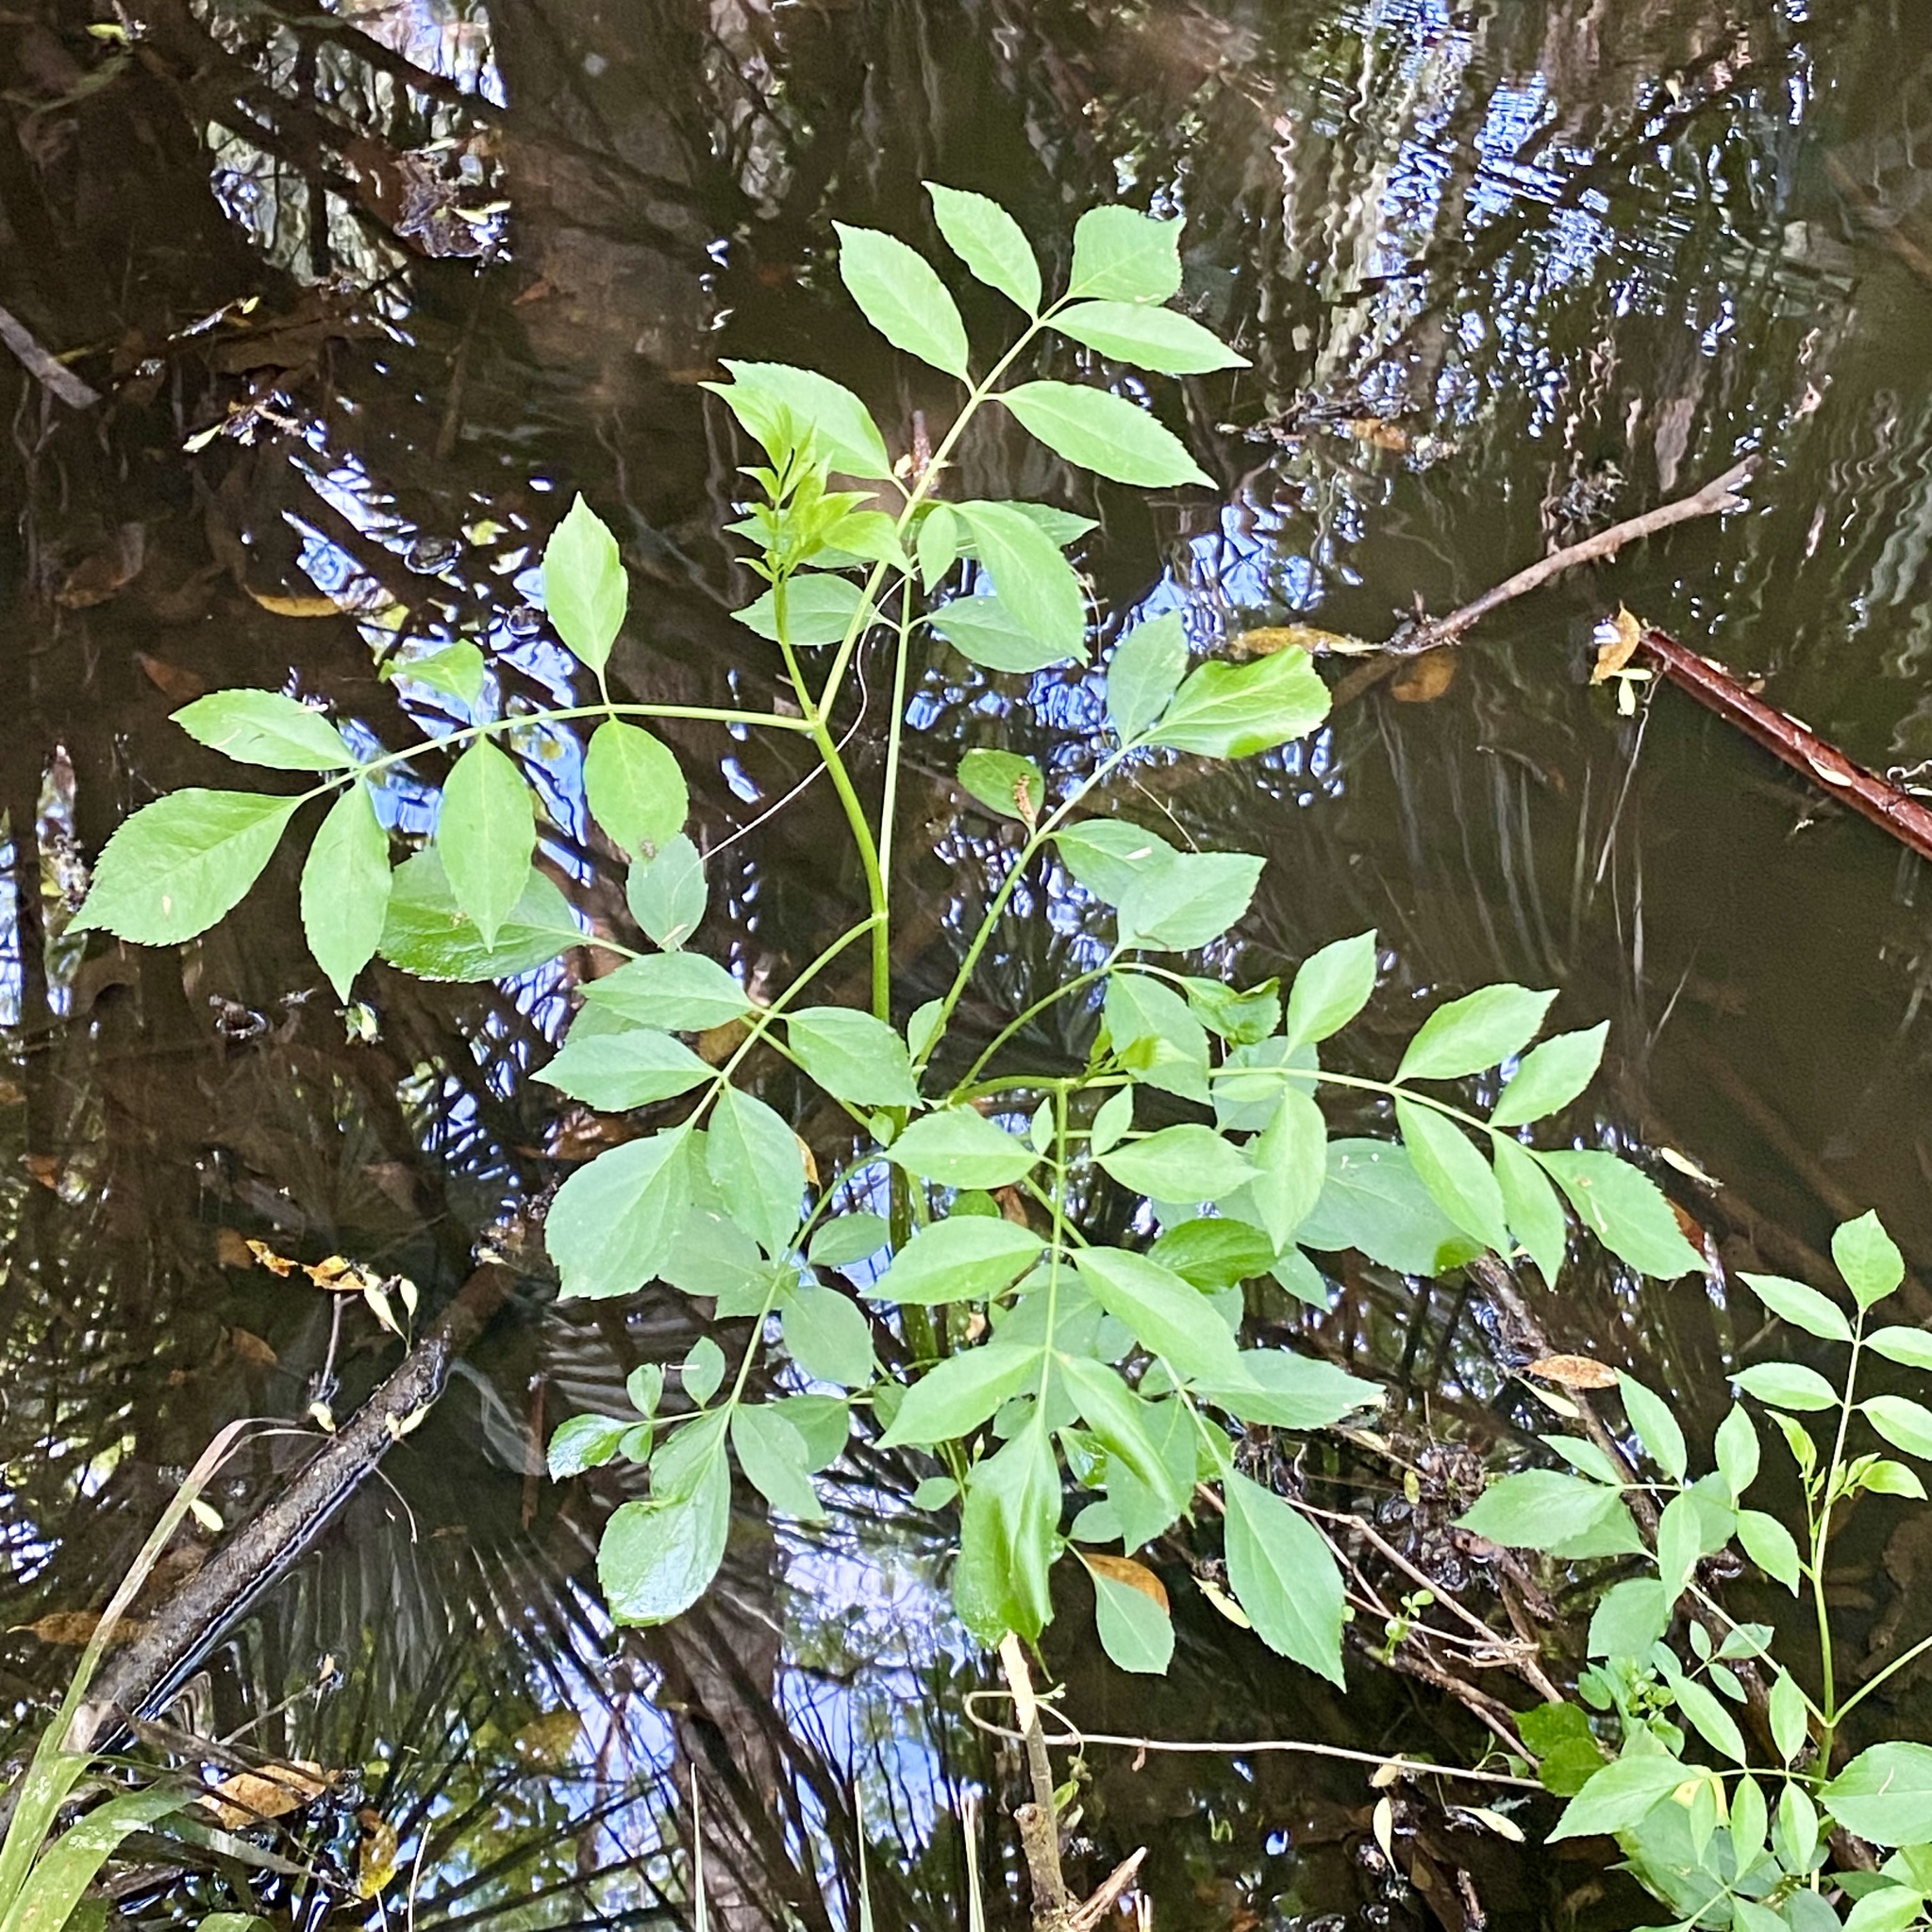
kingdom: Plantae
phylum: Tracheophyta
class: Magnoliopsida
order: Dipsacales
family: Viburnaceae
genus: Sambucus
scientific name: Sambucus canadensis
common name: American elder
